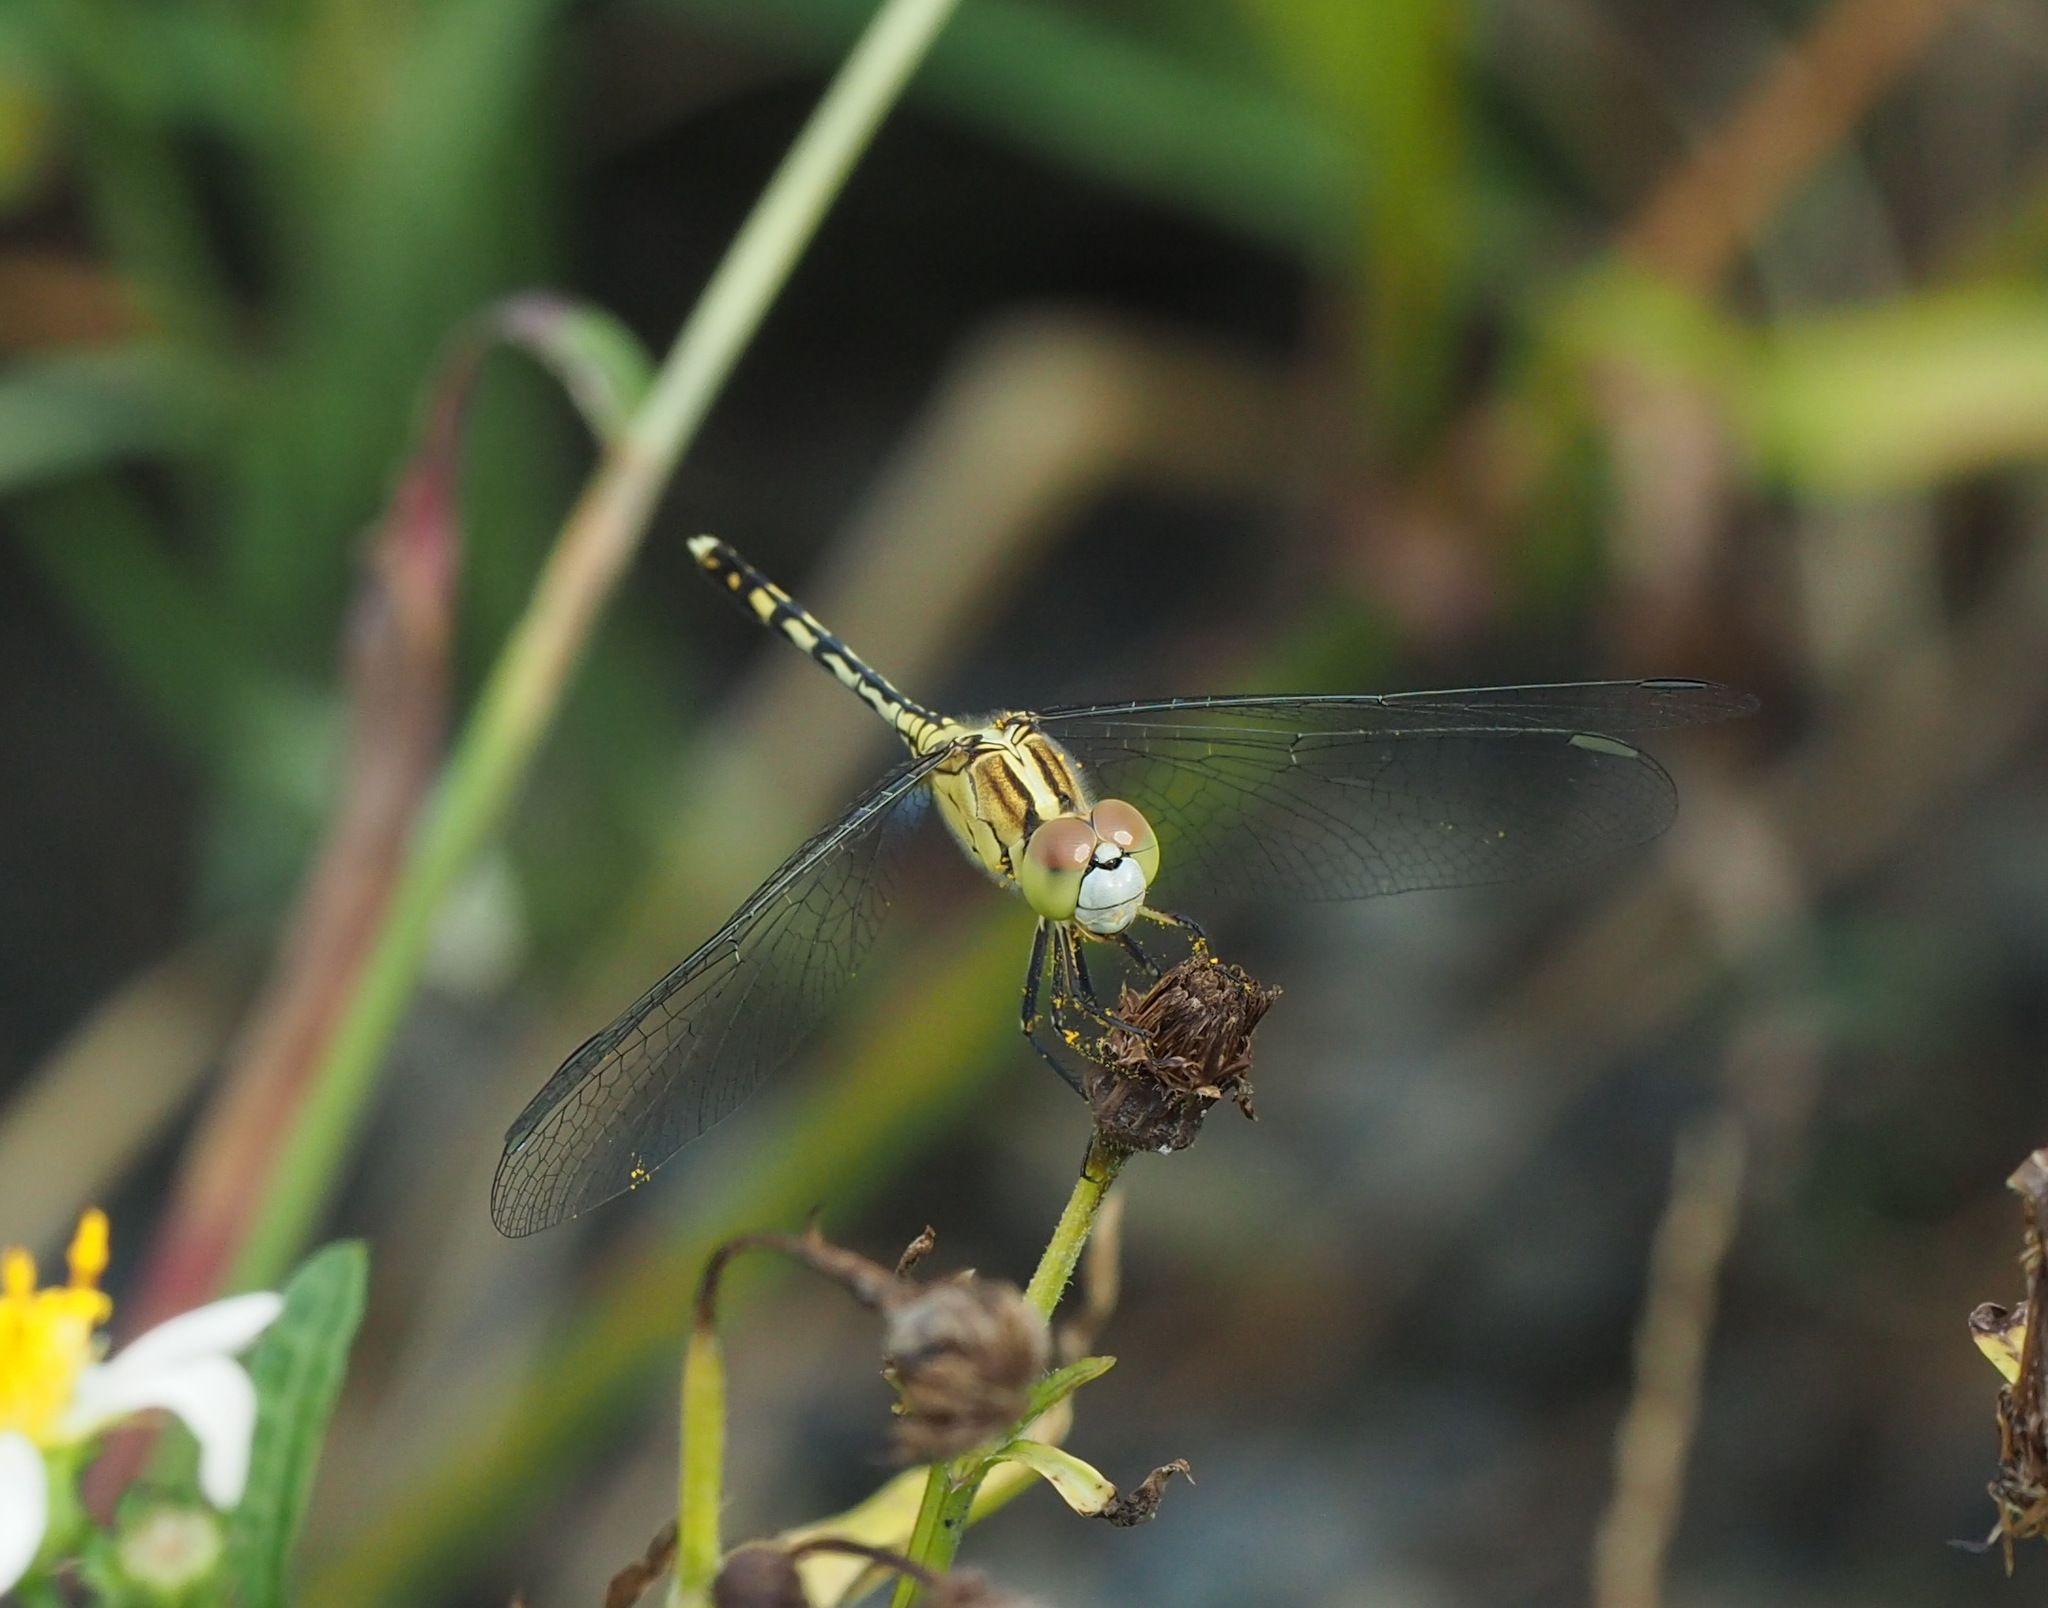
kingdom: Animalia
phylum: Arthropoda
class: Insecta
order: Odonata
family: Libellulidae
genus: Diplacodes
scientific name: Diplacodes trivialis
